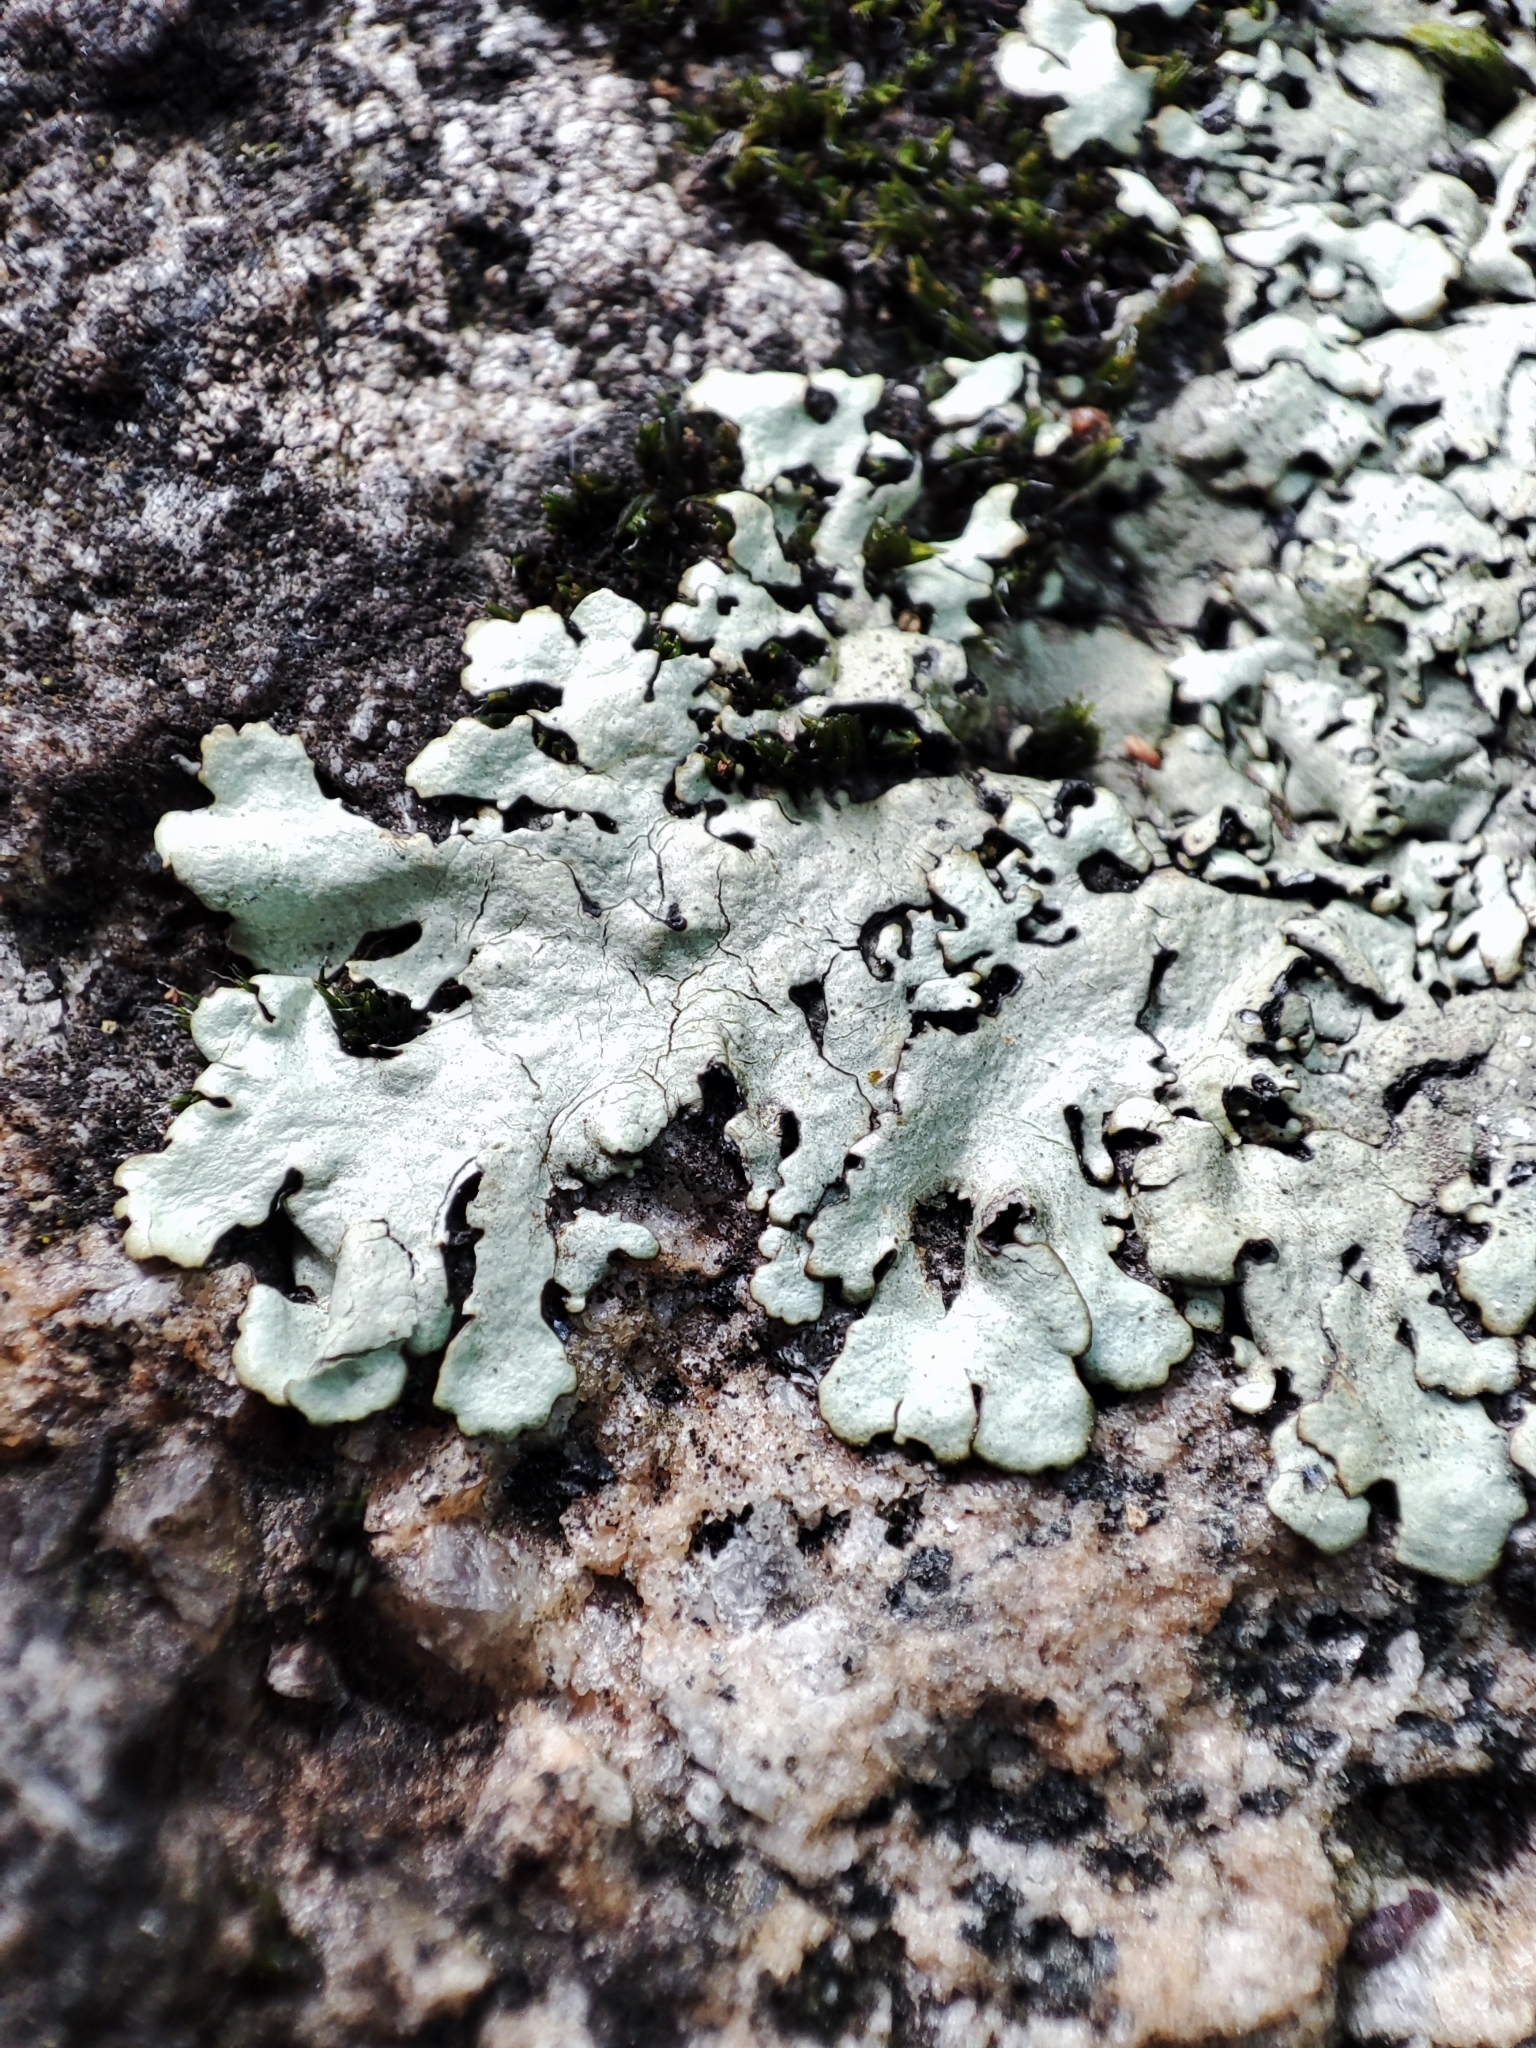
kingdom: Fungi
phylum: Ascomycota
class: Lecanoromycetes
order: Lecanorales
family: Parmeliaceae
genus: Xanthoparmelia
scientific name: Xanthoparmelia stenophylla
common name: Shingled rock shield
